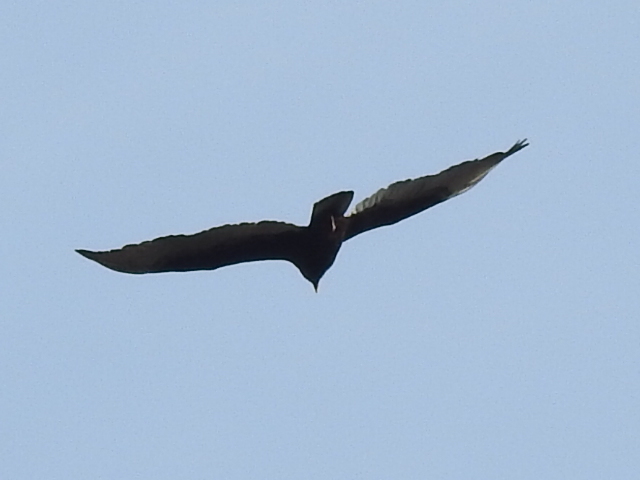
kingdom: Animalia
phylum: Chordata
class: Aves
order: Accipitriformes
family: Cathartidae
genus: Cathartes
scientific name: Cathartes aura
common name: Turkey vulture
